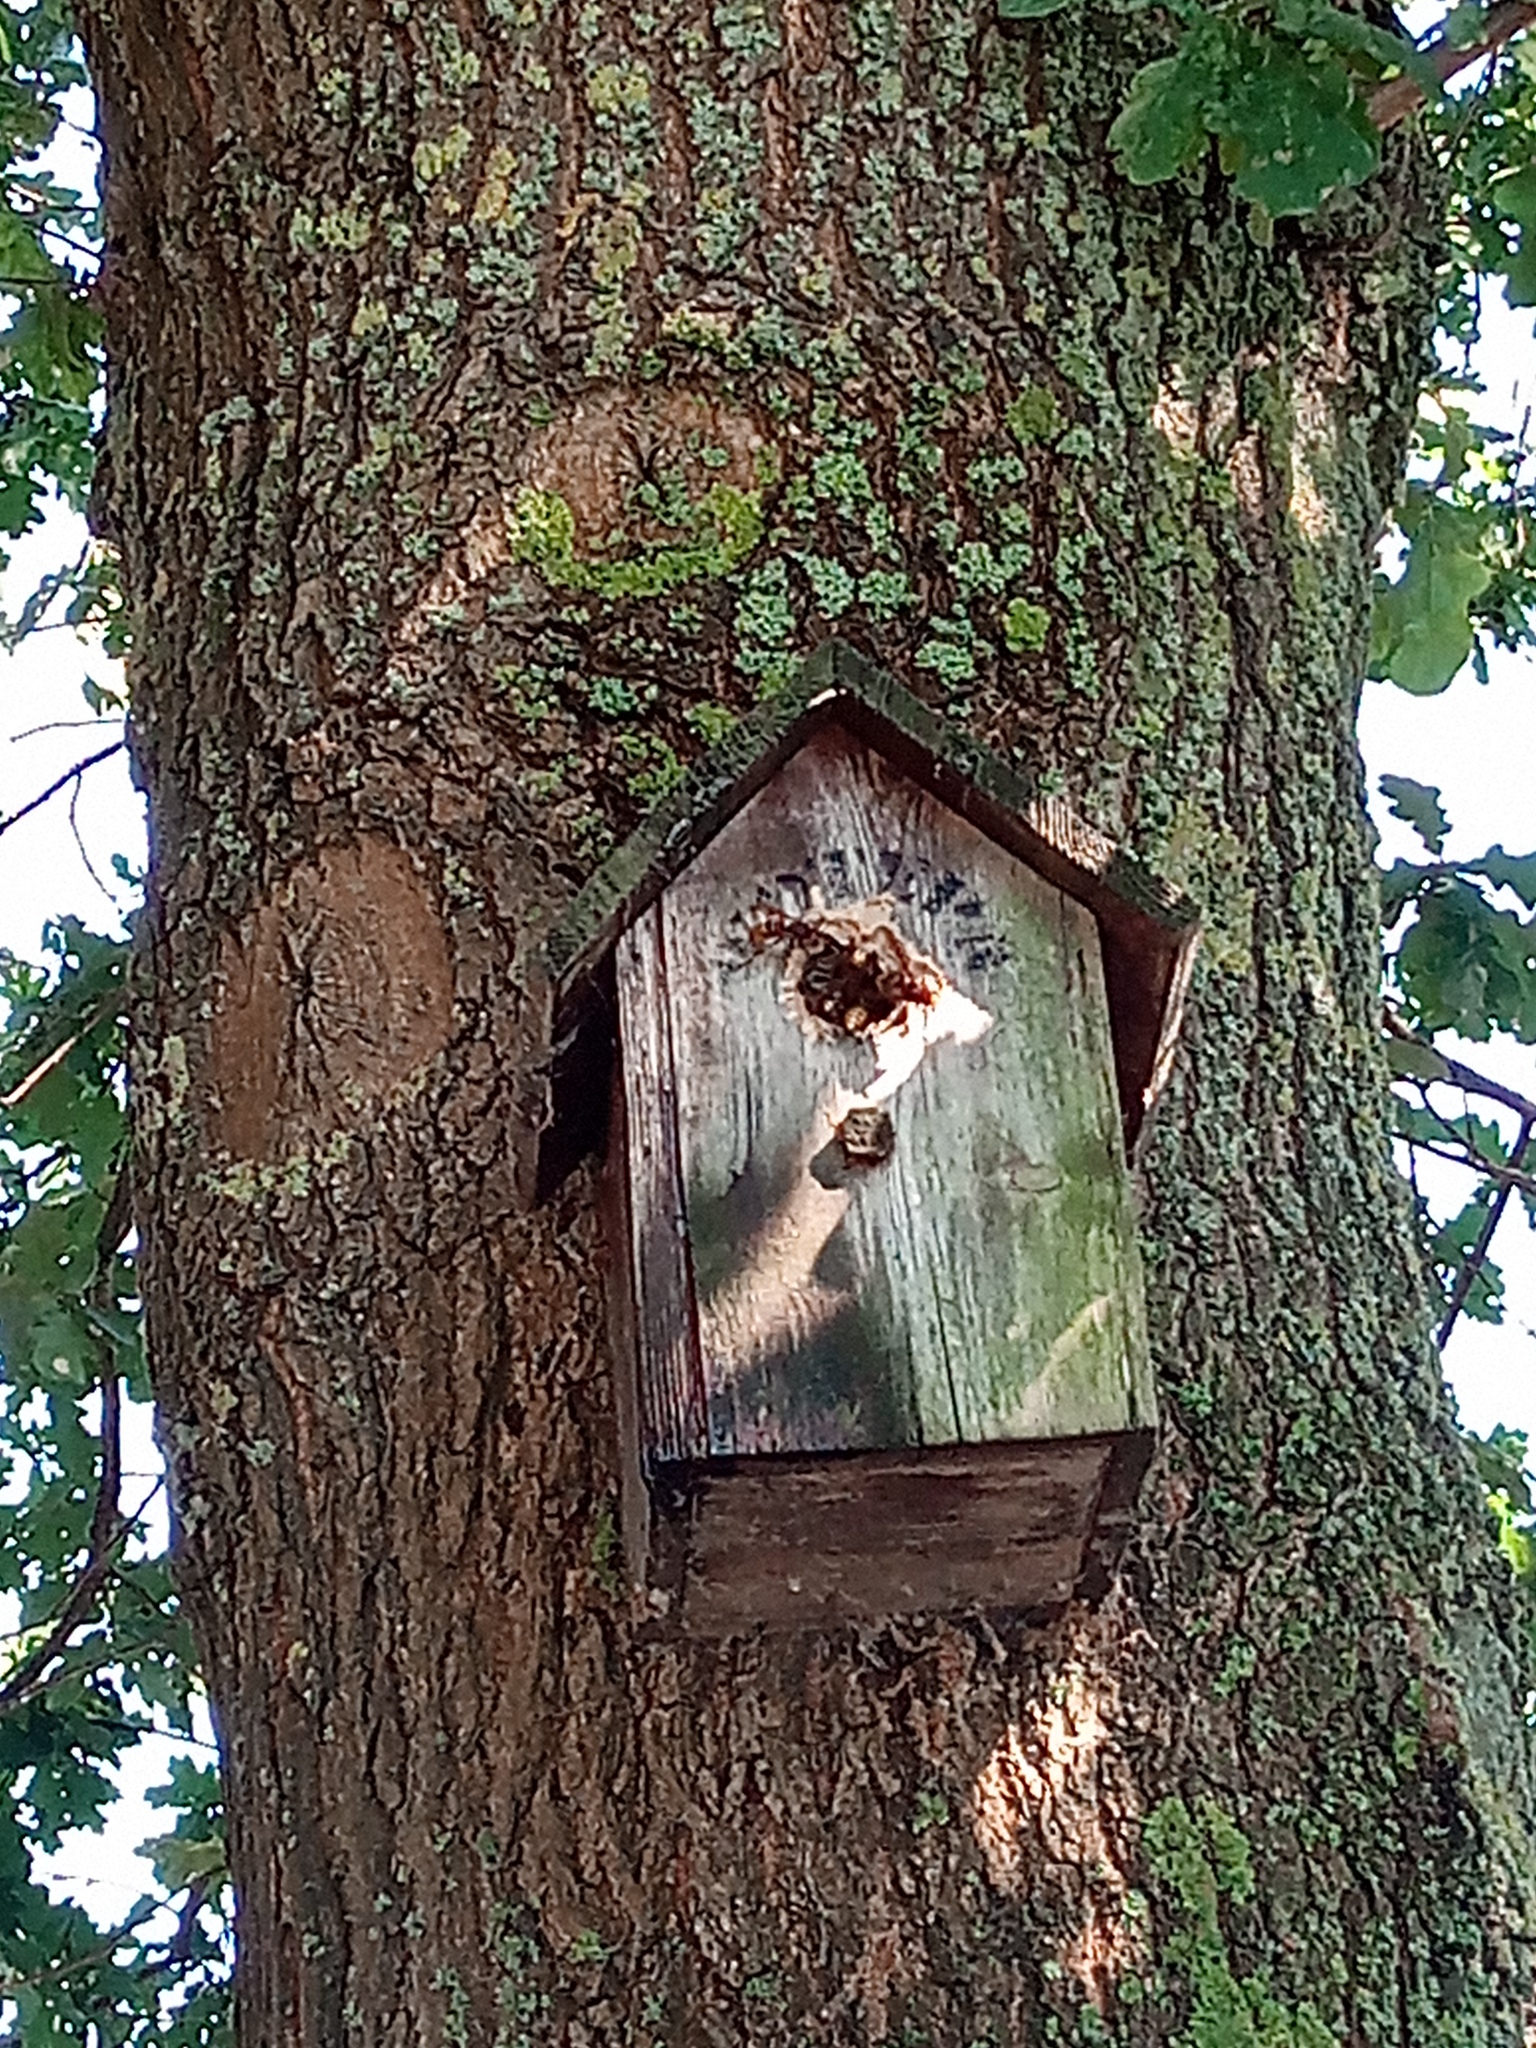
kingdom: Animalia
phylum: Arthropoda
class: Insecta
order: Hymenoptera
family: Vespidae
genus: Vespa
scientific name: Vespa crabro
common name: Hornet
